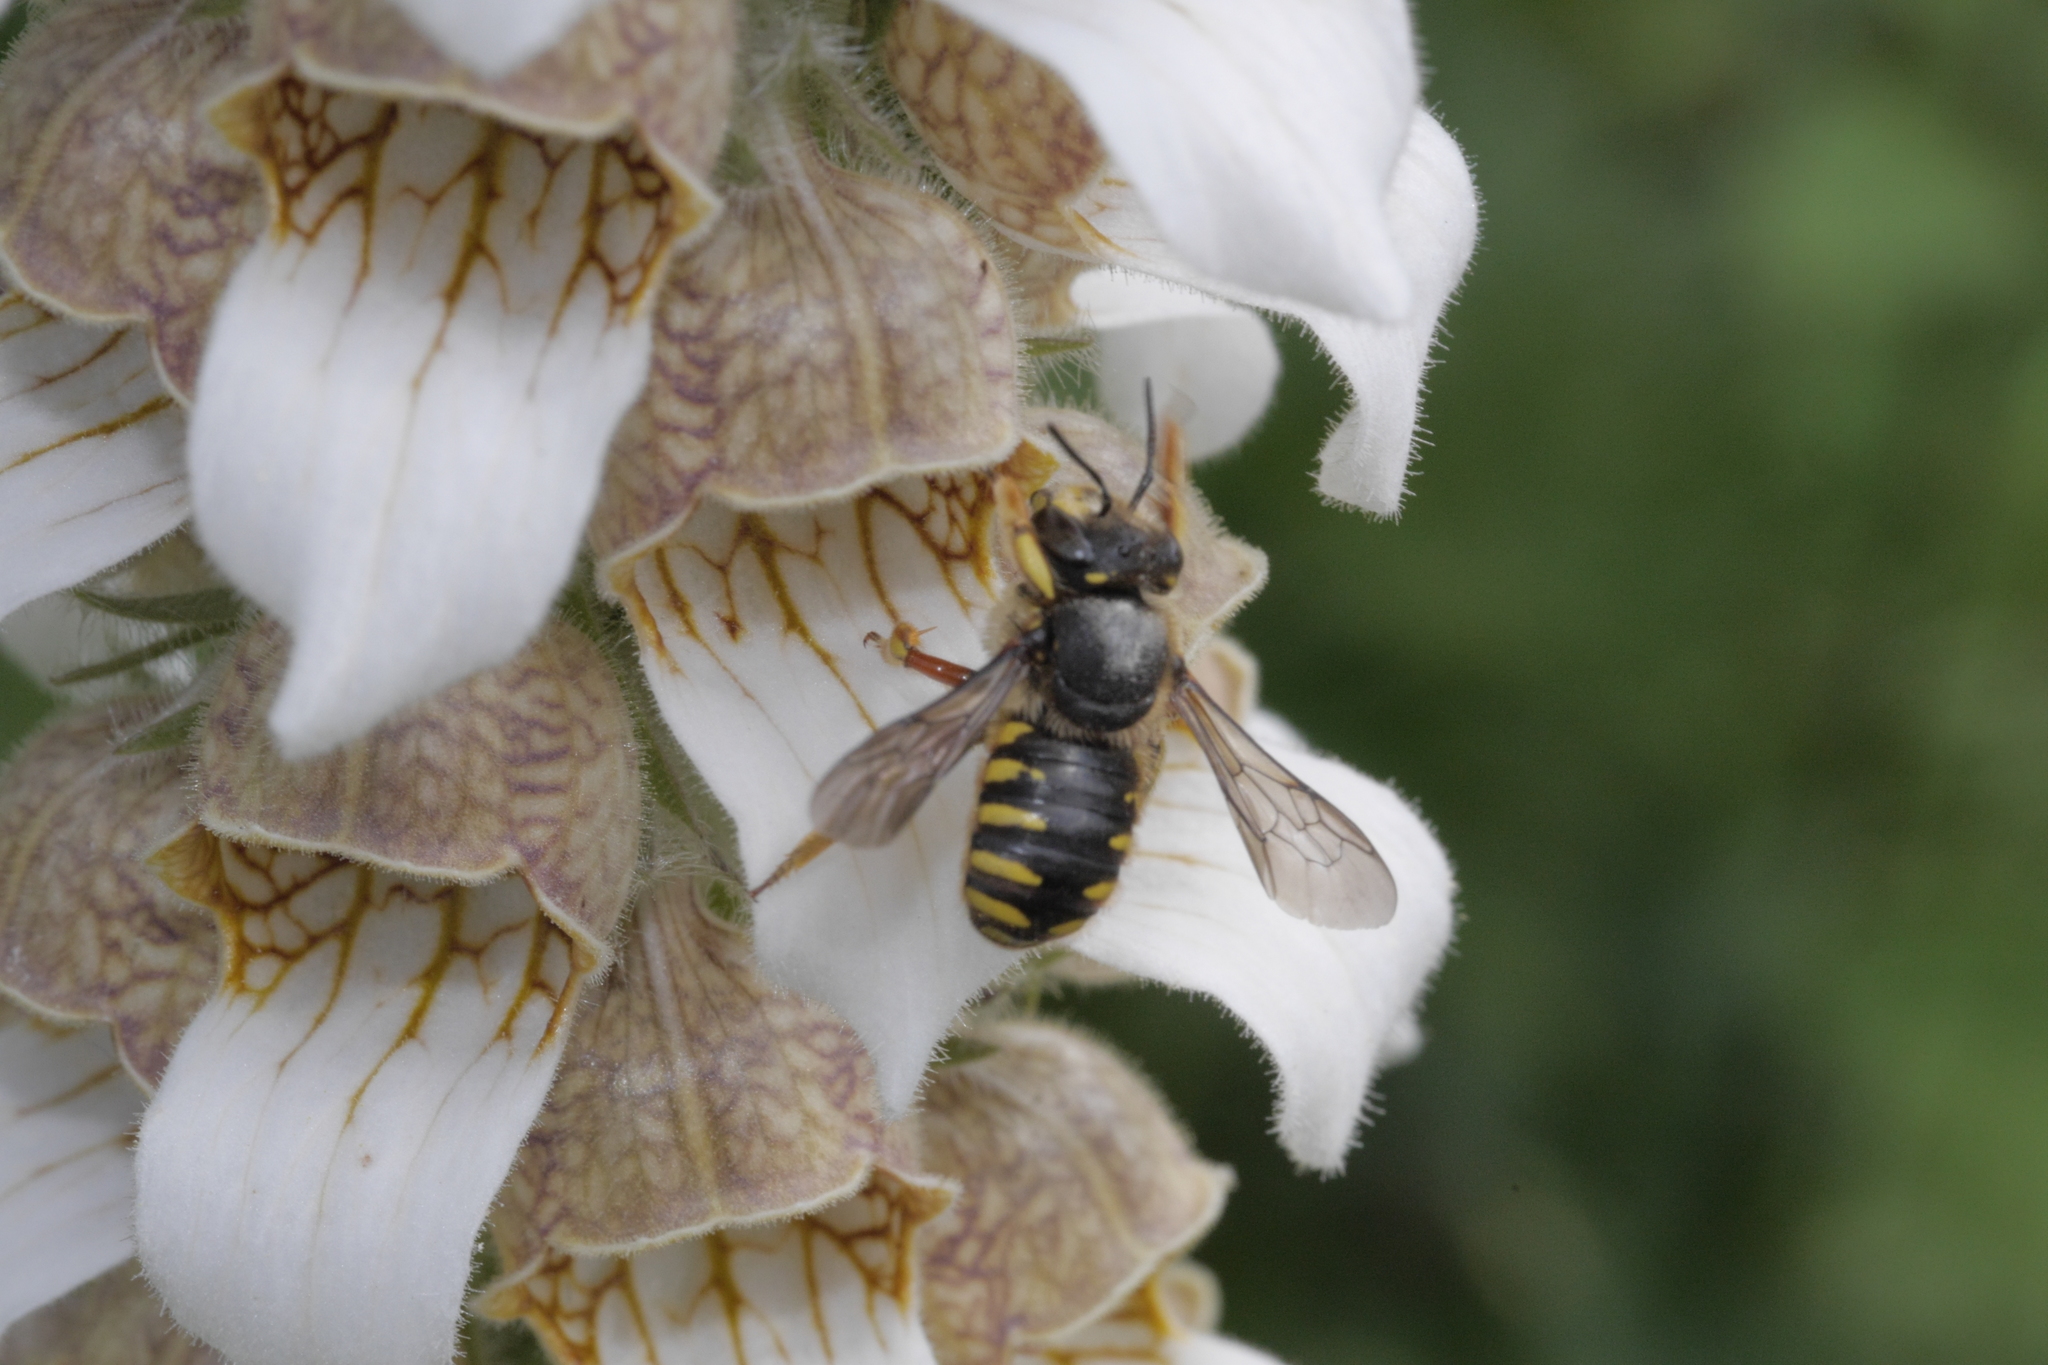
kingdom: Animalia
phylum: Arthropoda
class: Insecta
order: Hymenoptera
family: Megachilidae
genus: Anthidium
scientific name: Anthidium manicatum
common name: Wool carder bee
